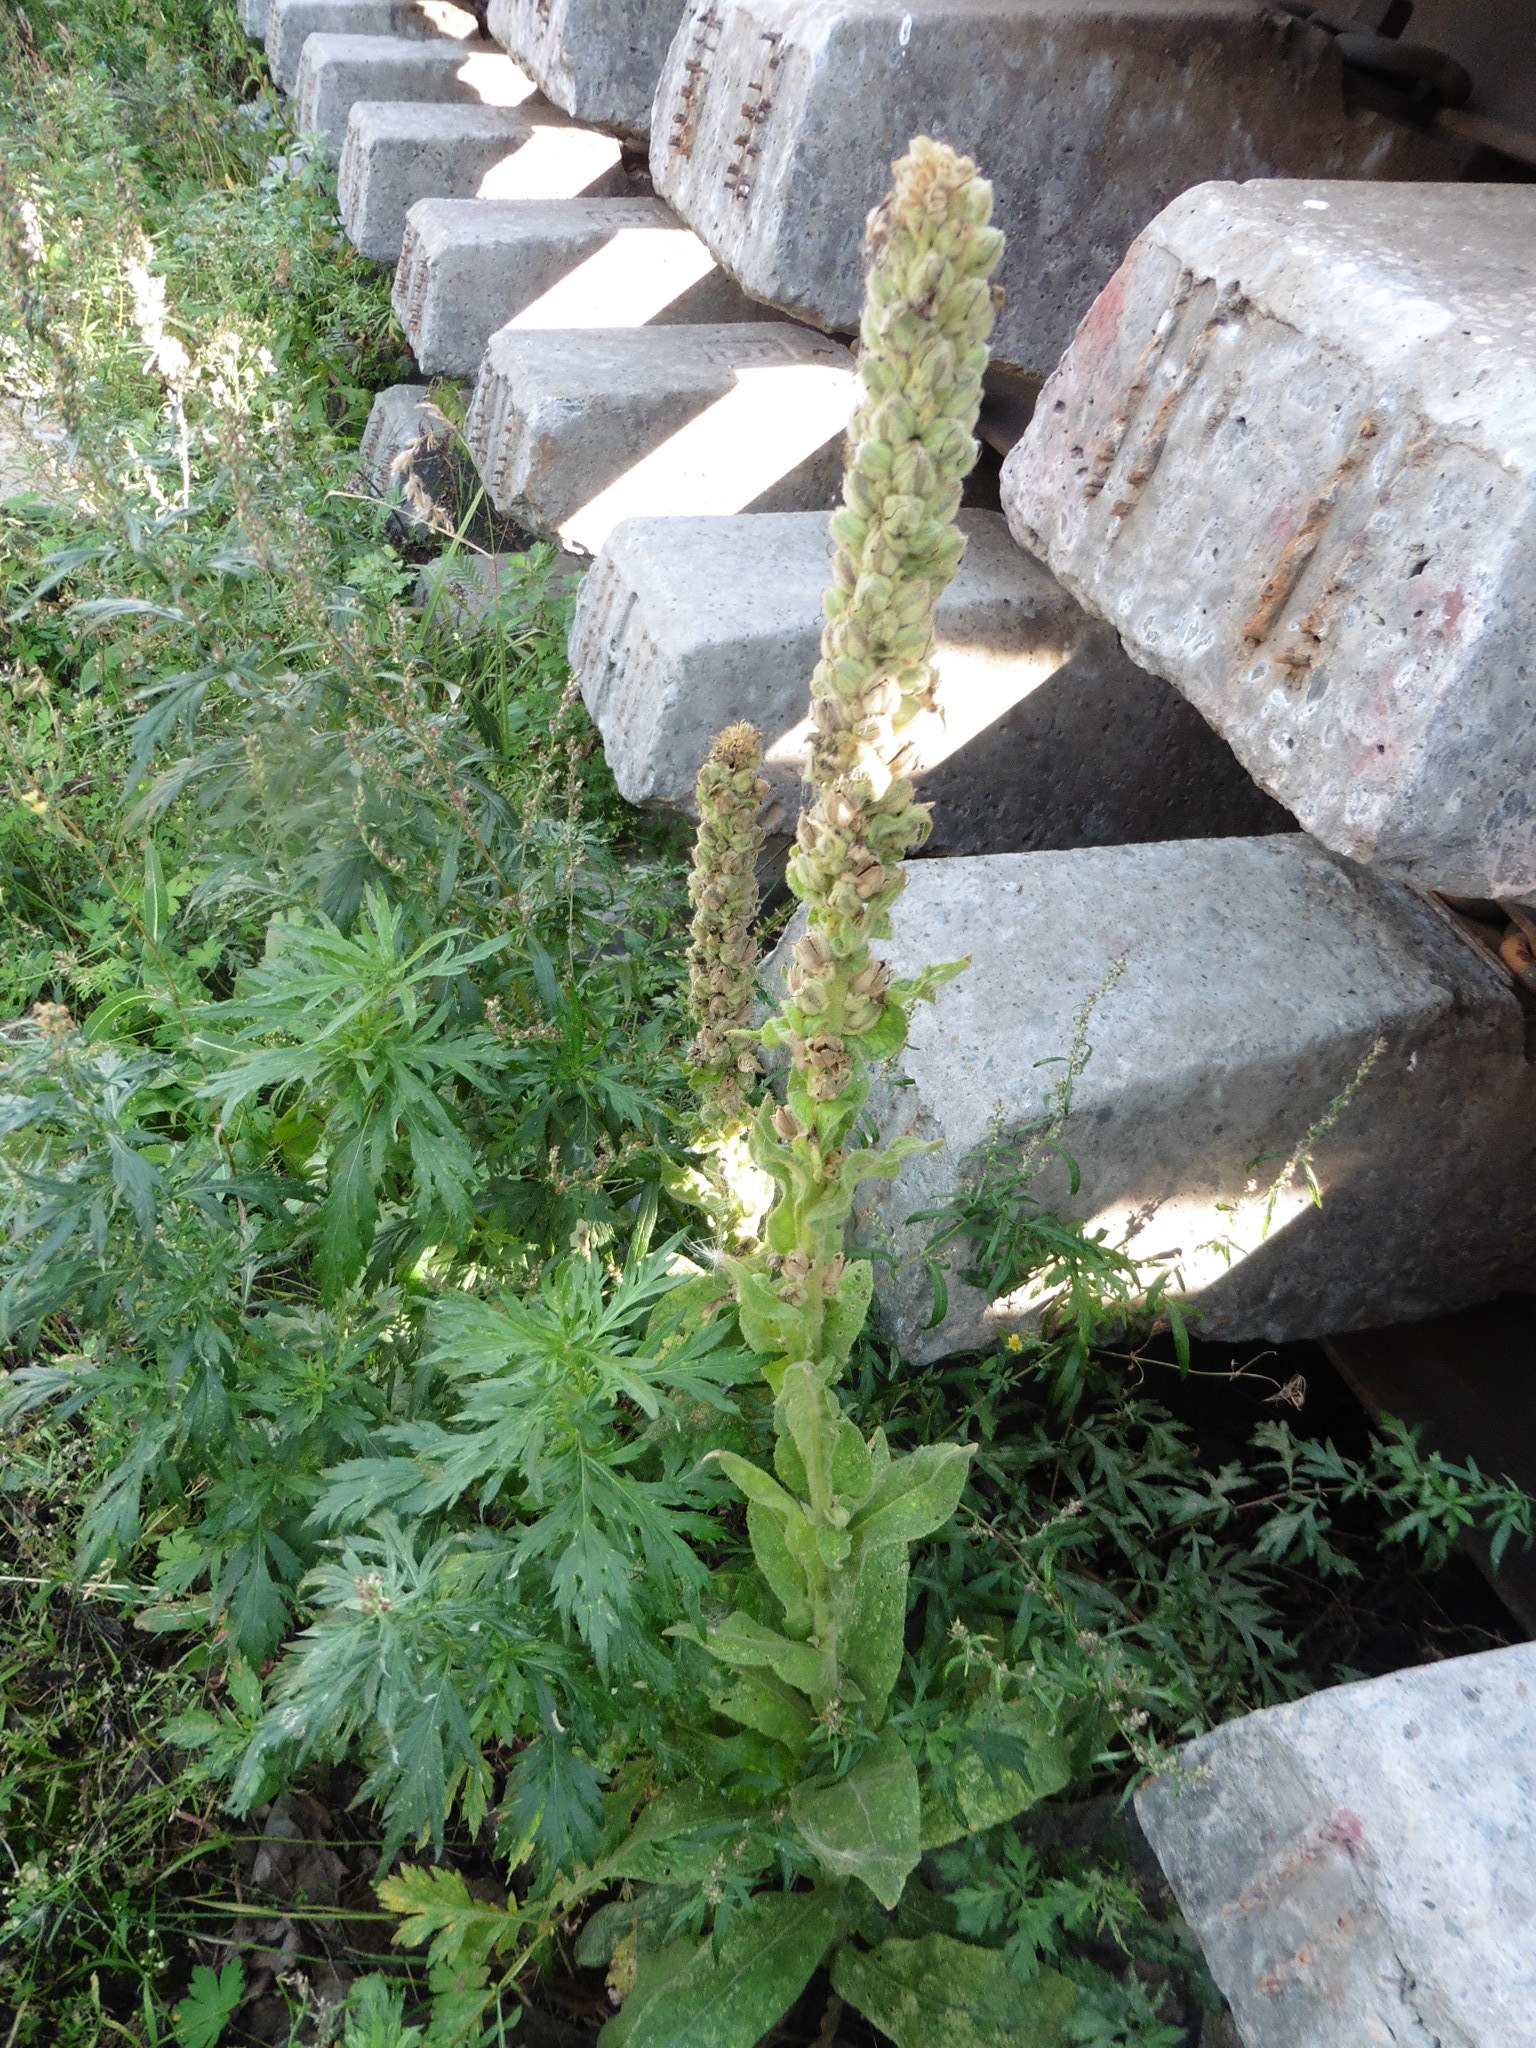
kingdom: Plantae
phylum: Tracheophyta
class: Magnoliopsida
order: Lamiales
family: Scrophulariaceae
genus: Verbascum
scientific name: Verbascum thapsus
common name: Common mullein
